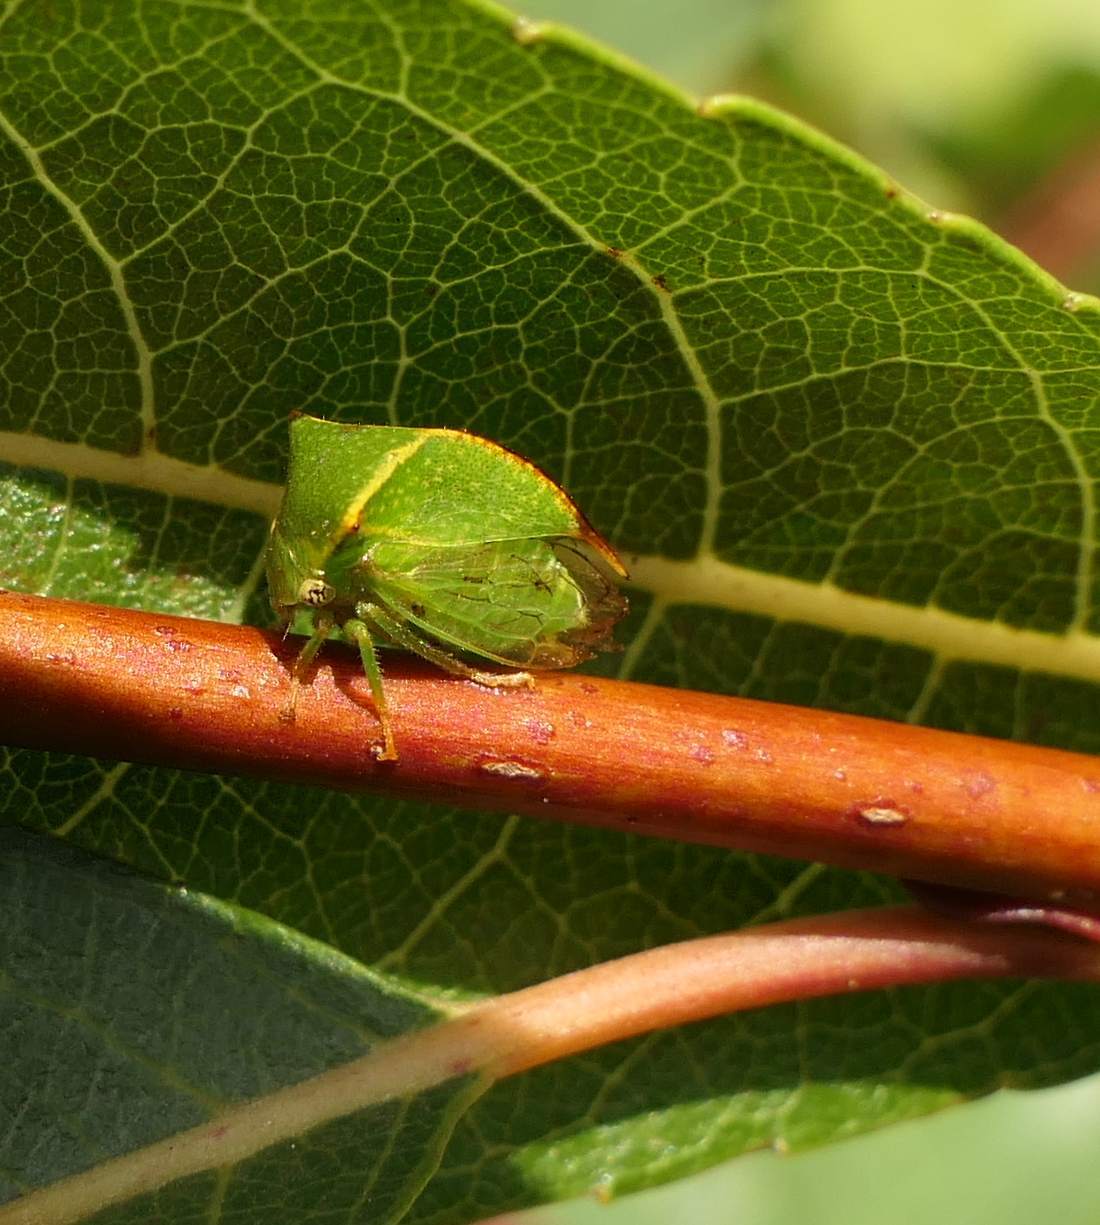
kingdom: Animalia
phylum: Arthropoda
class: Insecta
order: Hemiptera
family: Membracidae
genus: Stictocephala
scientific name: Stictocephala bisonia
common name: American buffalo treehopper
